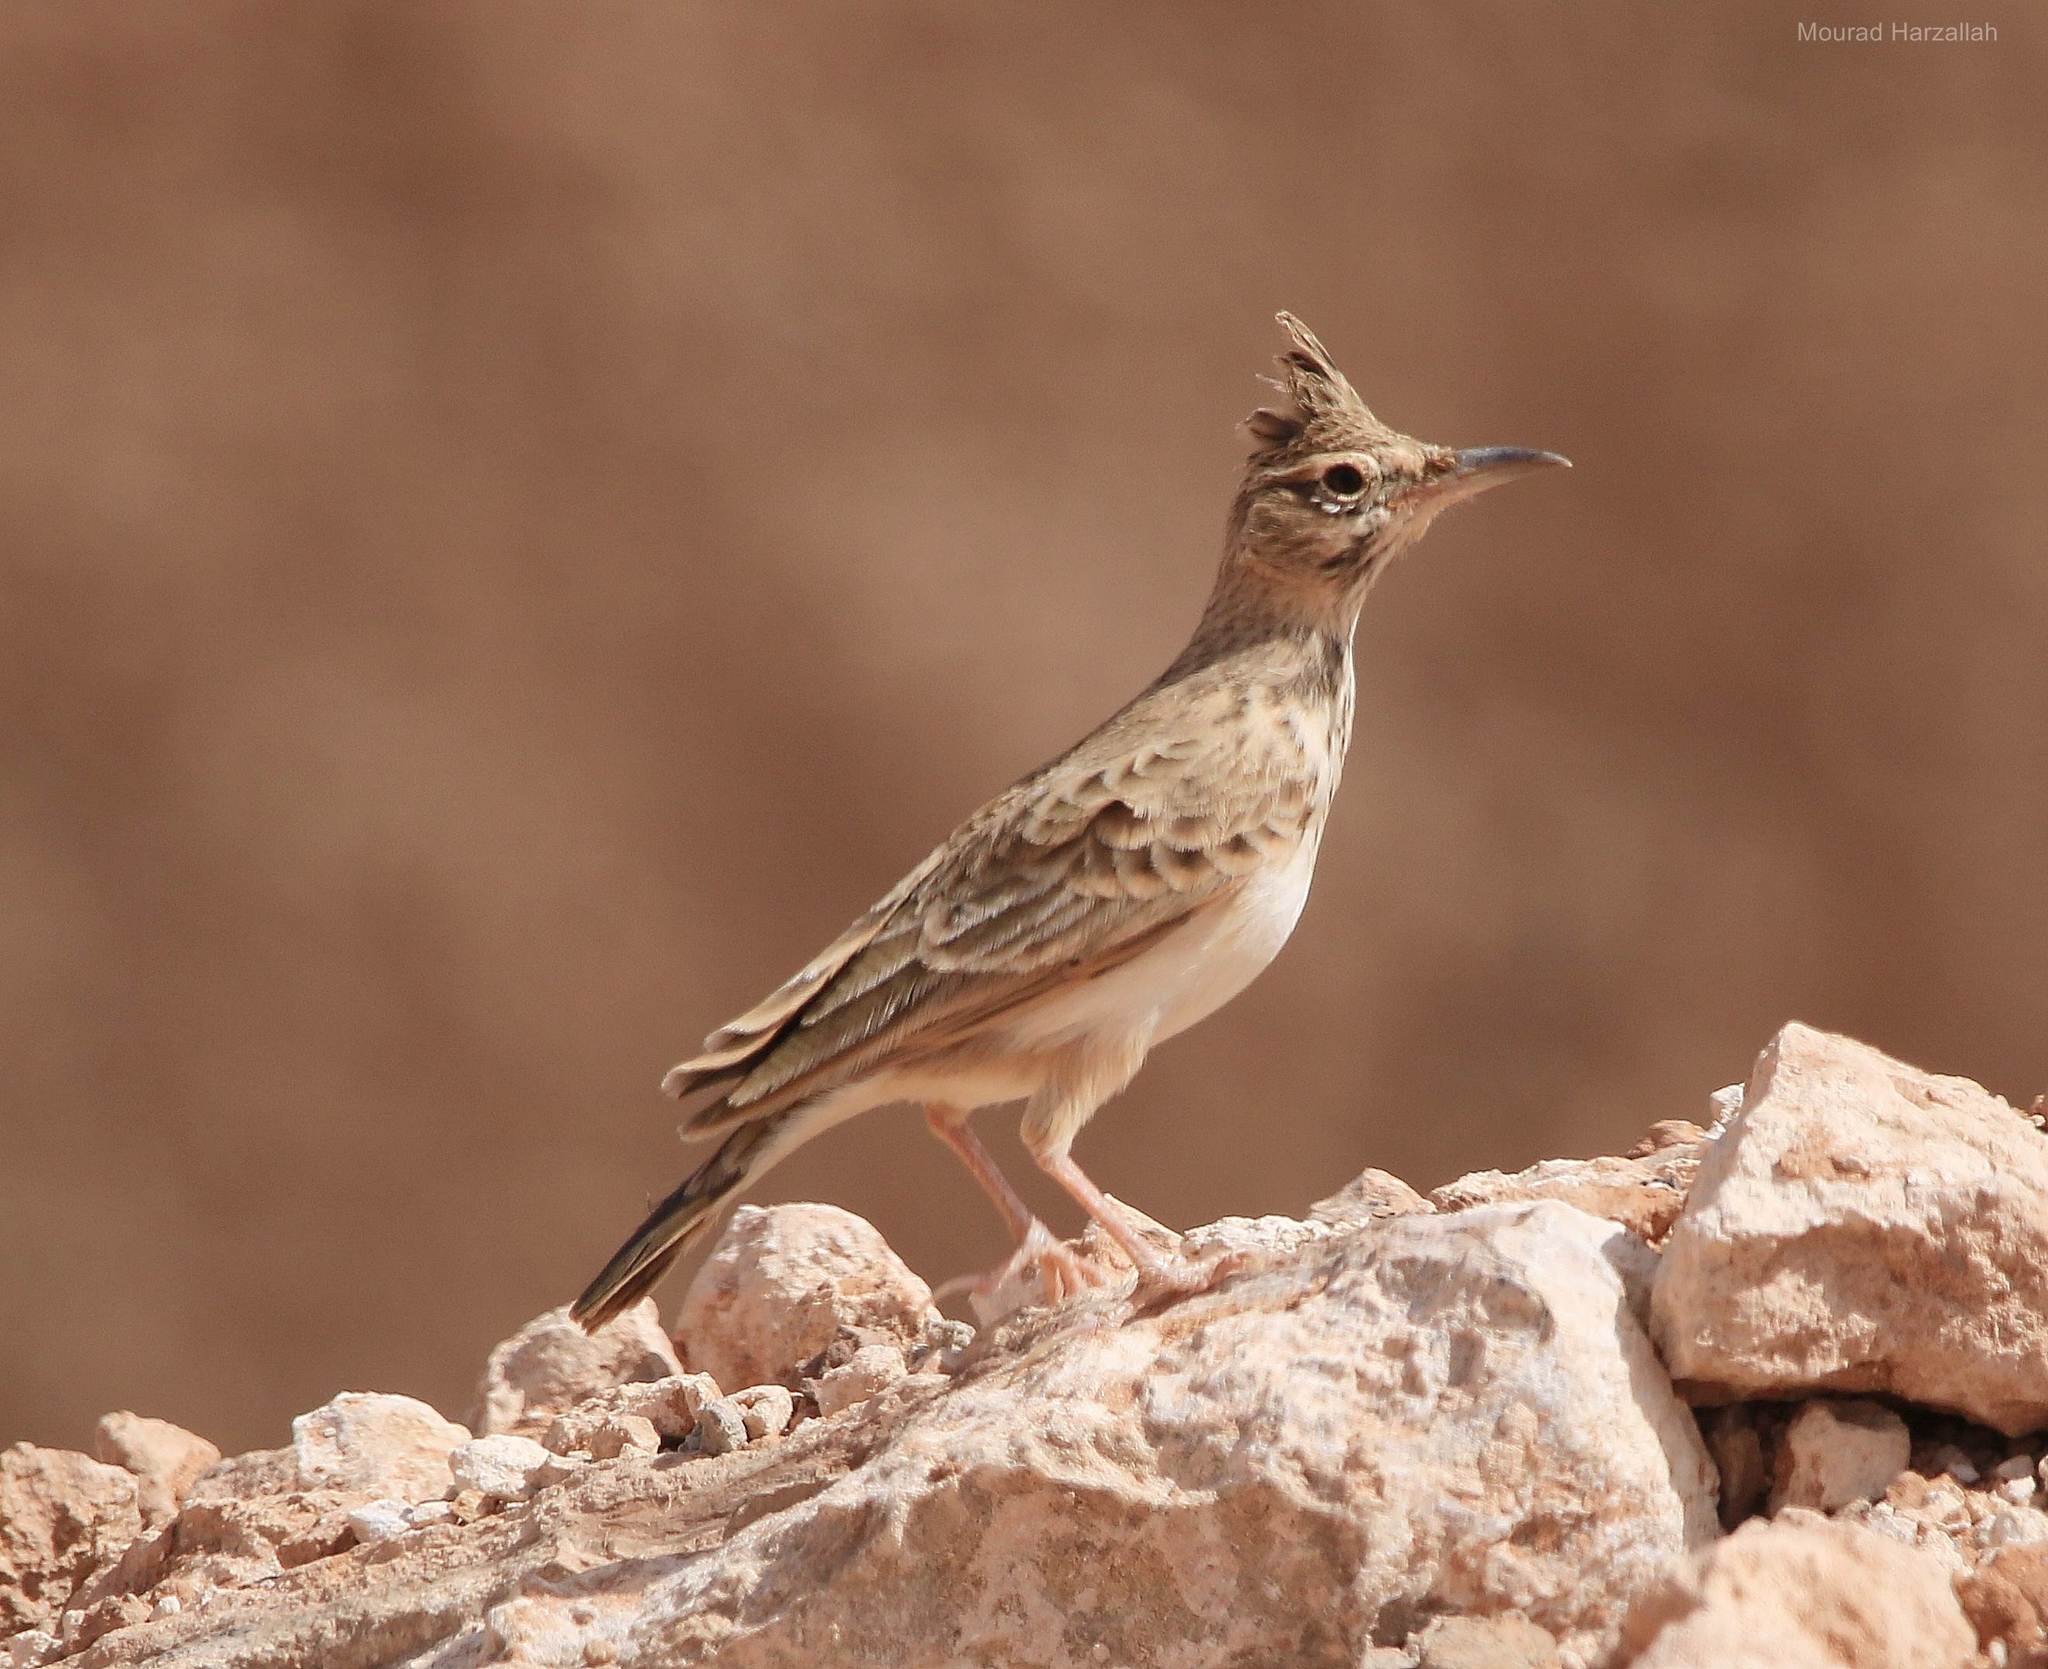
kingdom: Animalia
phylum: Chordata
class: Aves
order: Passeriformes
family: Alaudidae
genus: Galerida
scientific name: Galerida cristata
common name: Crested lark
